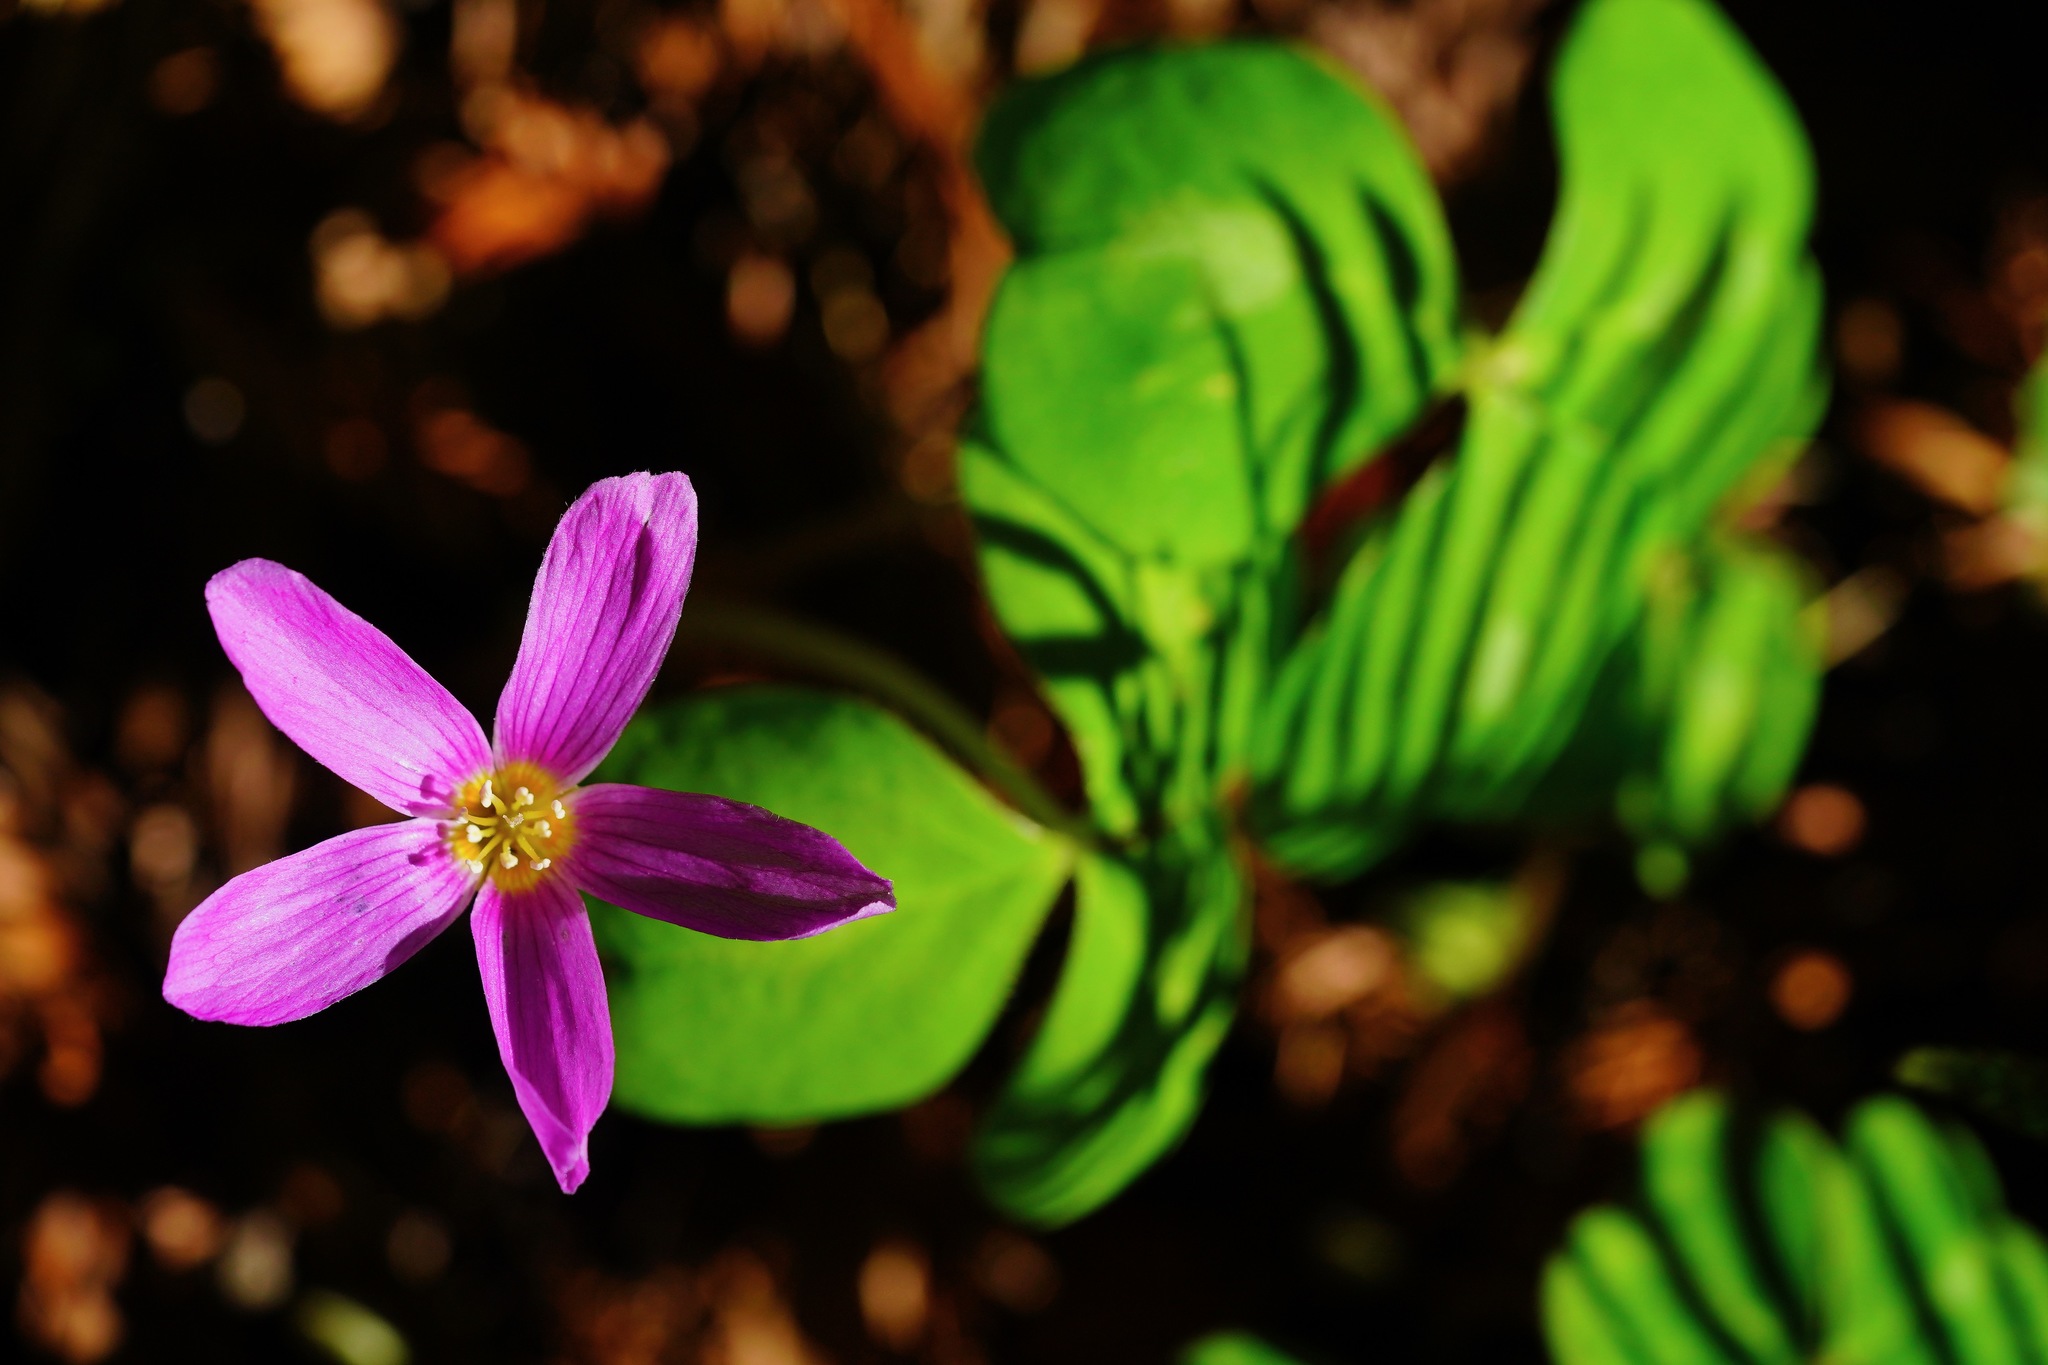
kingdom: Plantae
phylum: Tracheophyta
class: Magnoliopsida
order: Oxalidales
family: Oxalidaceae
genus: Oxalis
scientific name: Oxalis oregana
